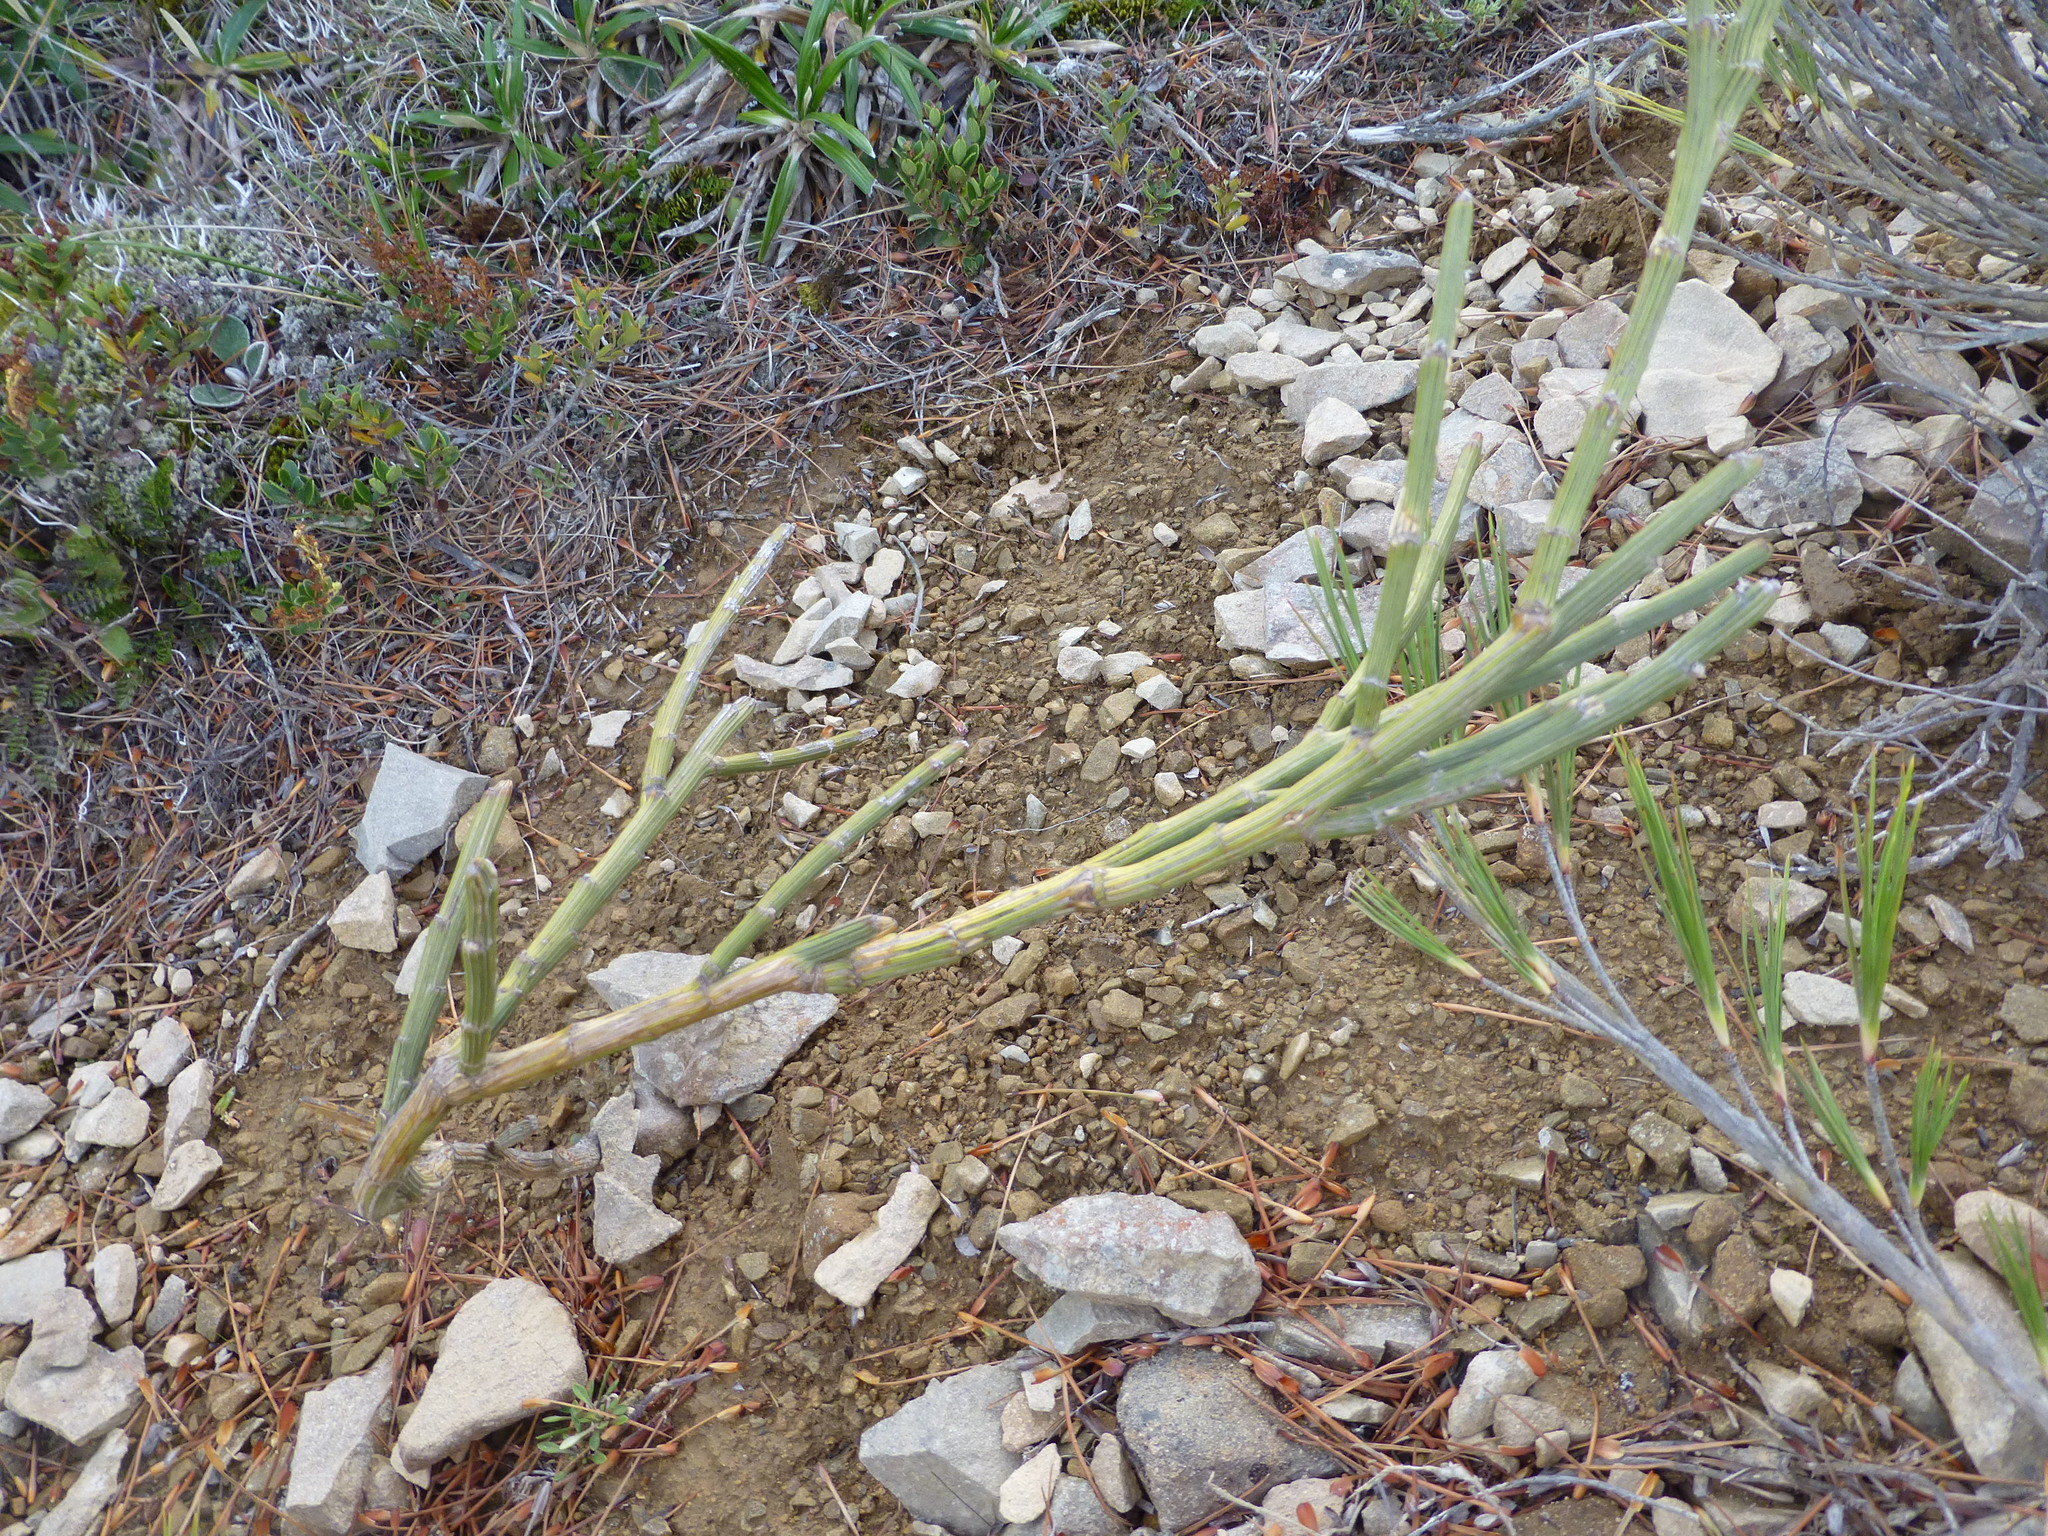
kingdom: Plantae
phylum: Tracheophyta
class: Magnoliopsida
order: Fabales
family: Fabaceae
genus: Carmichaelia
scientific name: Carmichaelia crassicaulis
